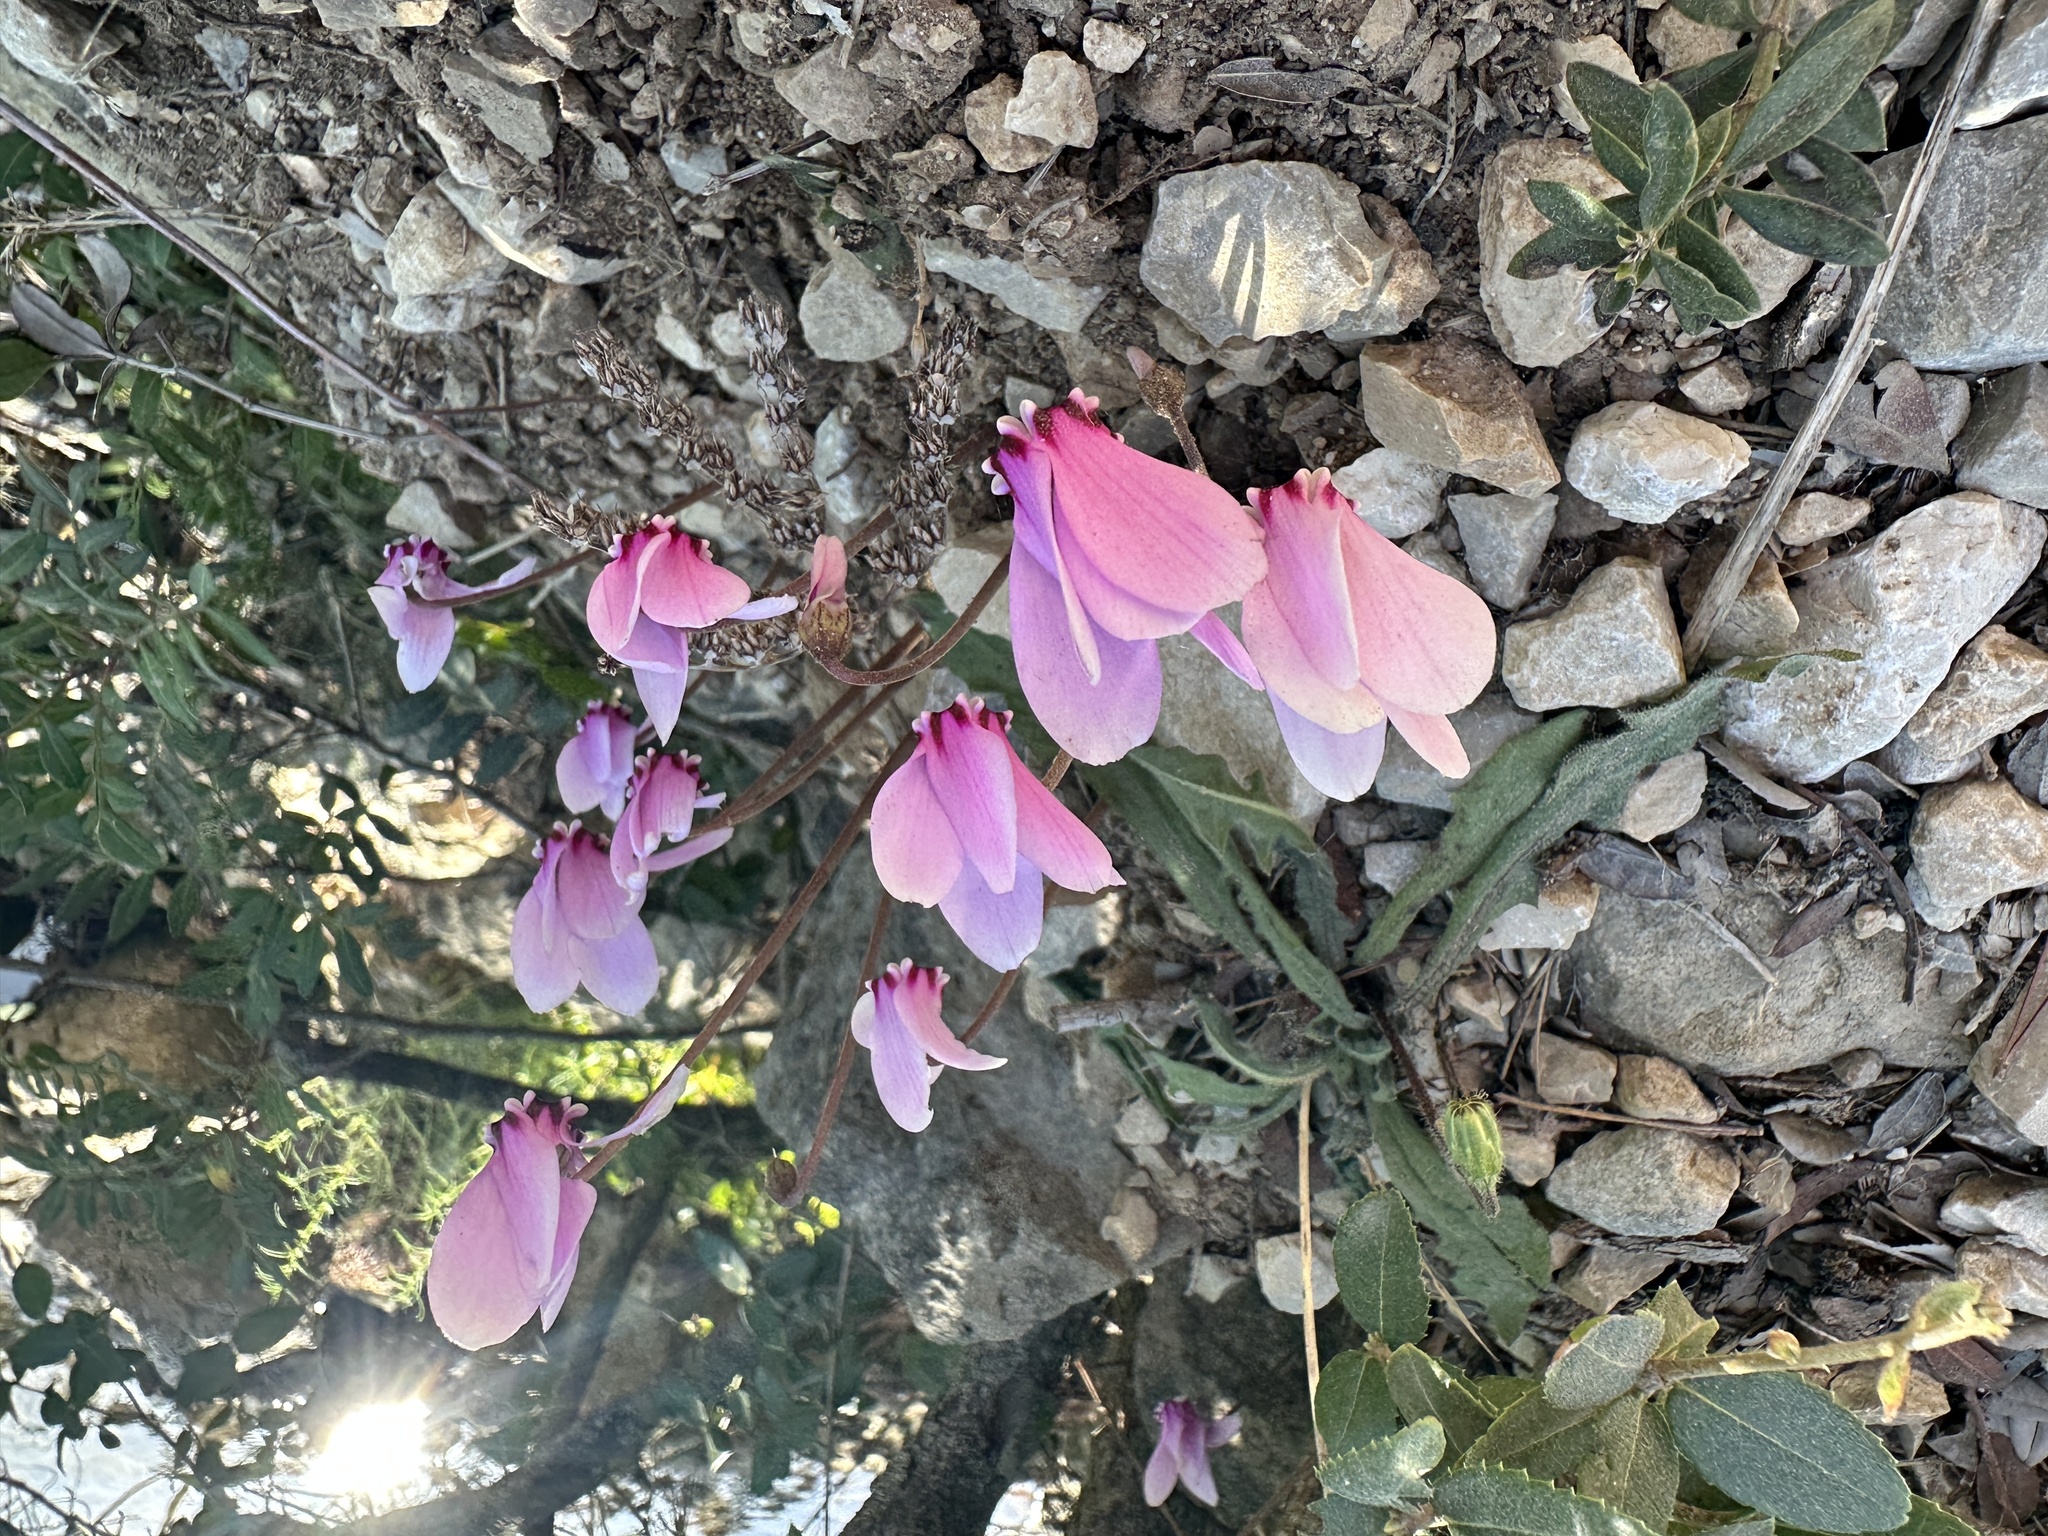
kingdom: Plantae
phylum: Tracheophyta
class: Magnoliopsida
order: Ericales
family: Primulaceae
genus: Cyclamen
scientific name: Cyclamen hederifolium
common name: Sowbread
